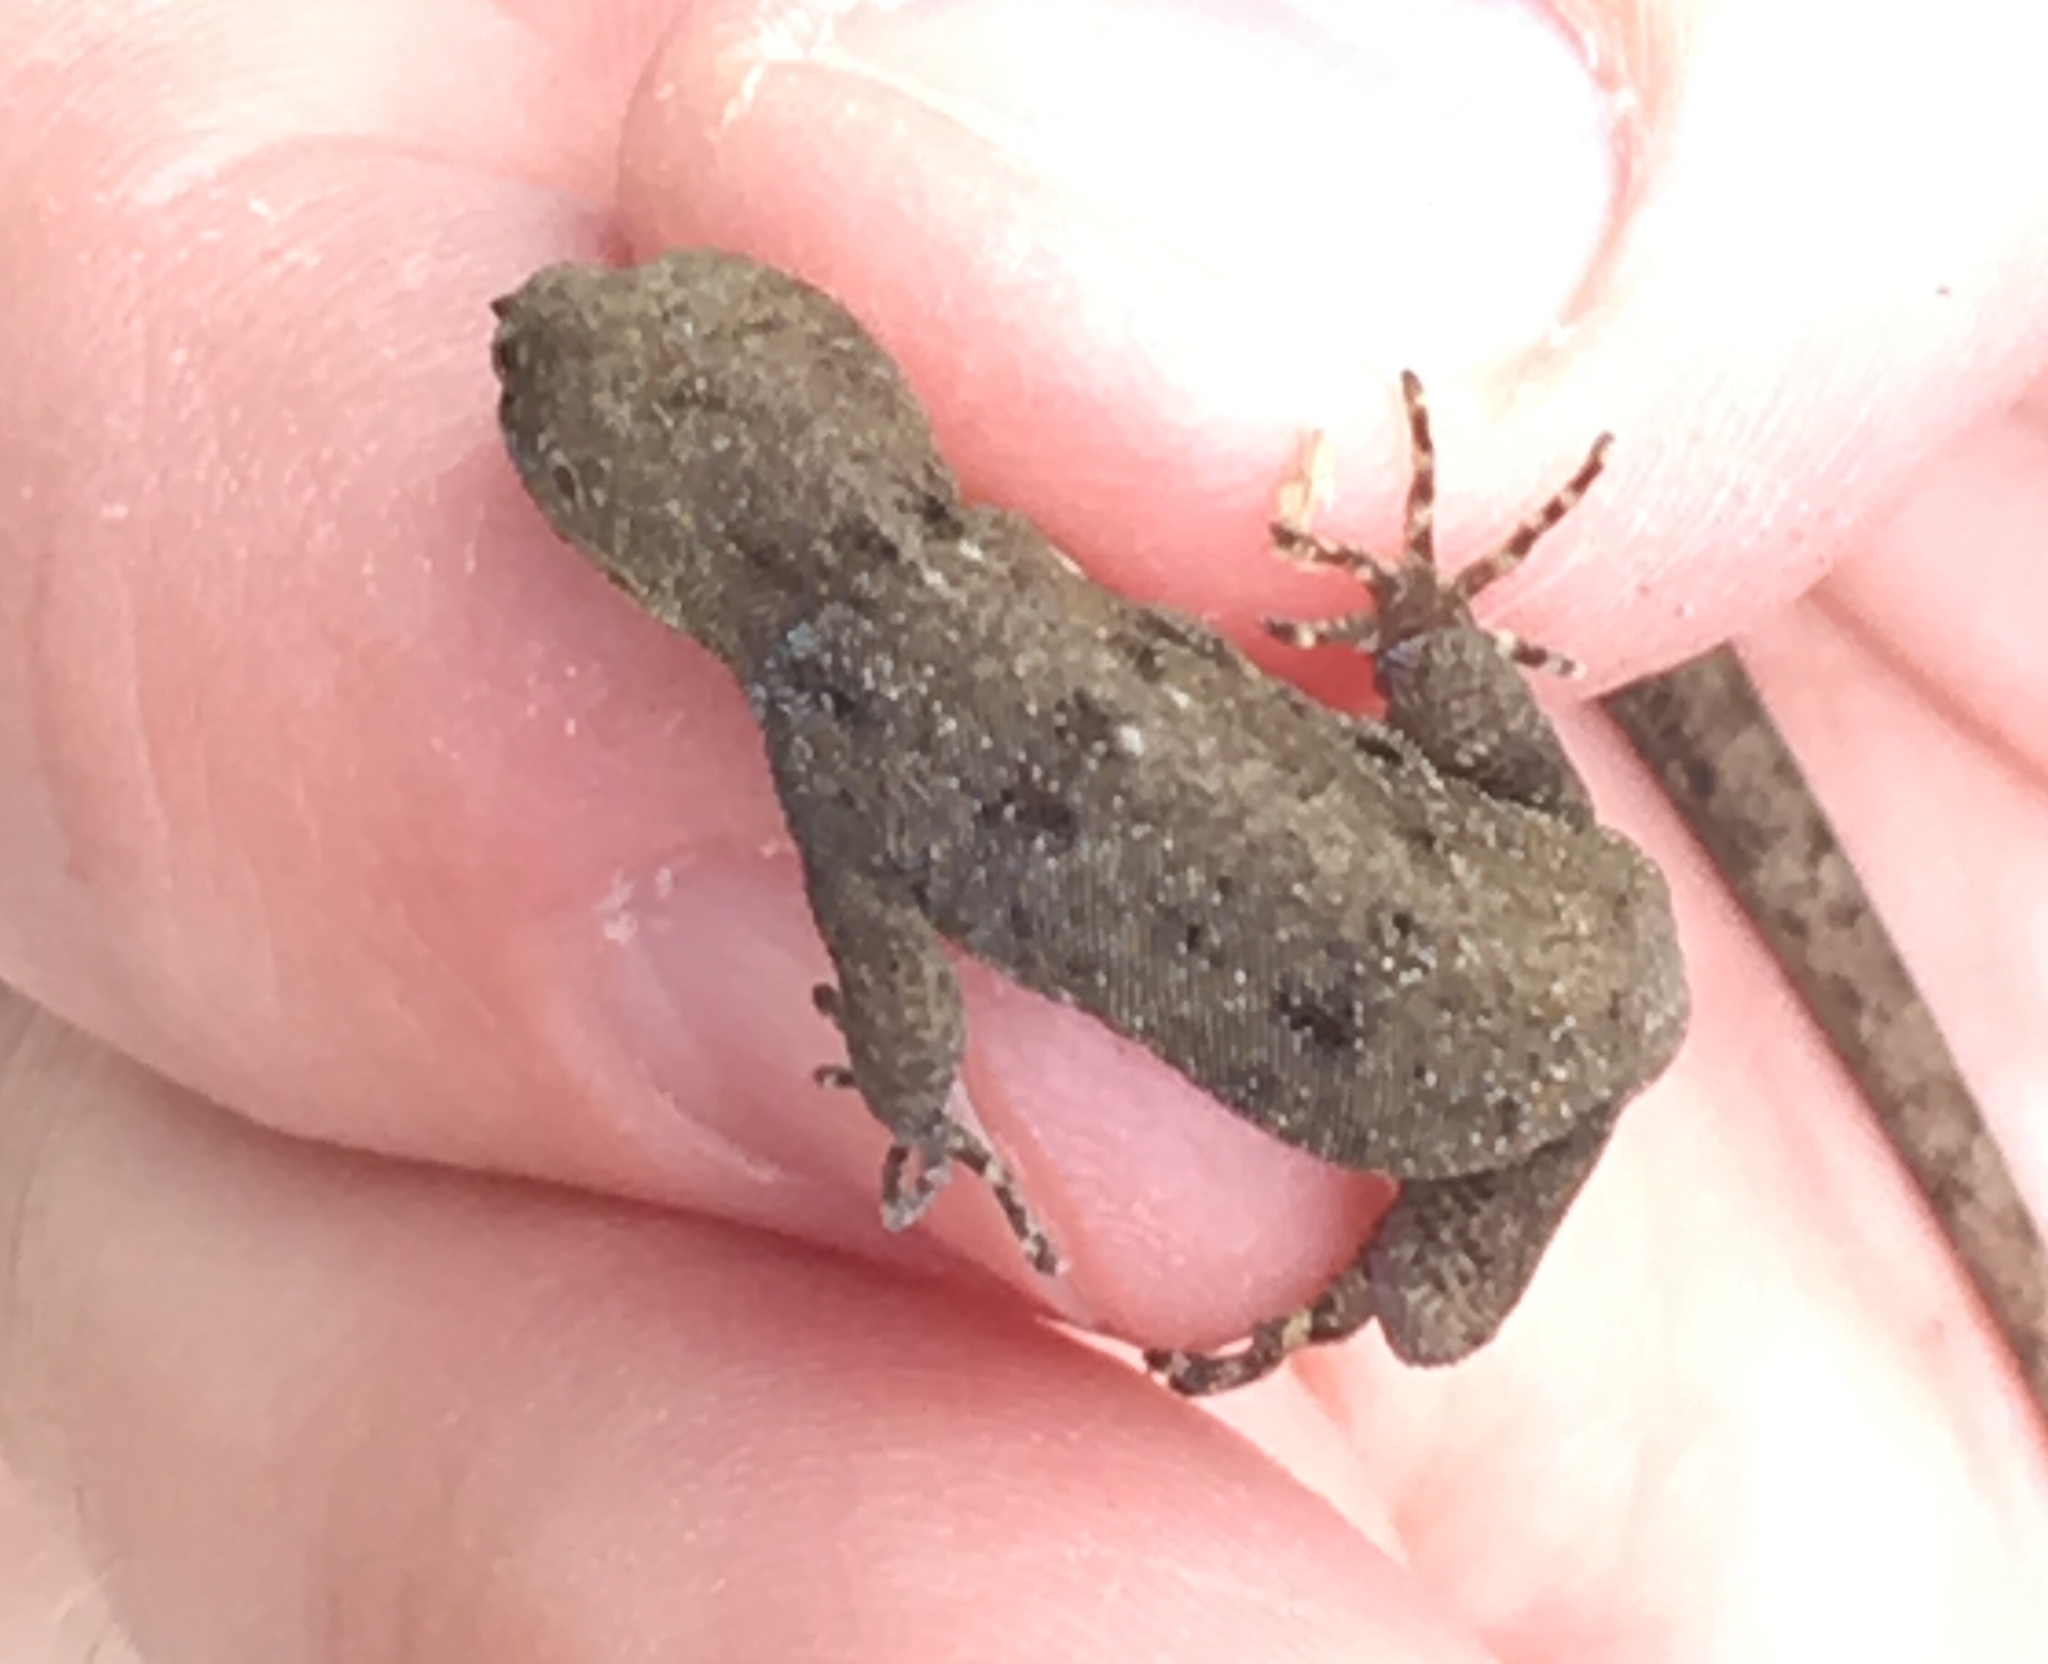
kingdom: Animalia
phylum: Chordata
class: Squamata
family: Sphaerodactylidae
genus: Gonatodes
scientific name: Gonatodes albogularis
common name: Yellow-headed gecko
